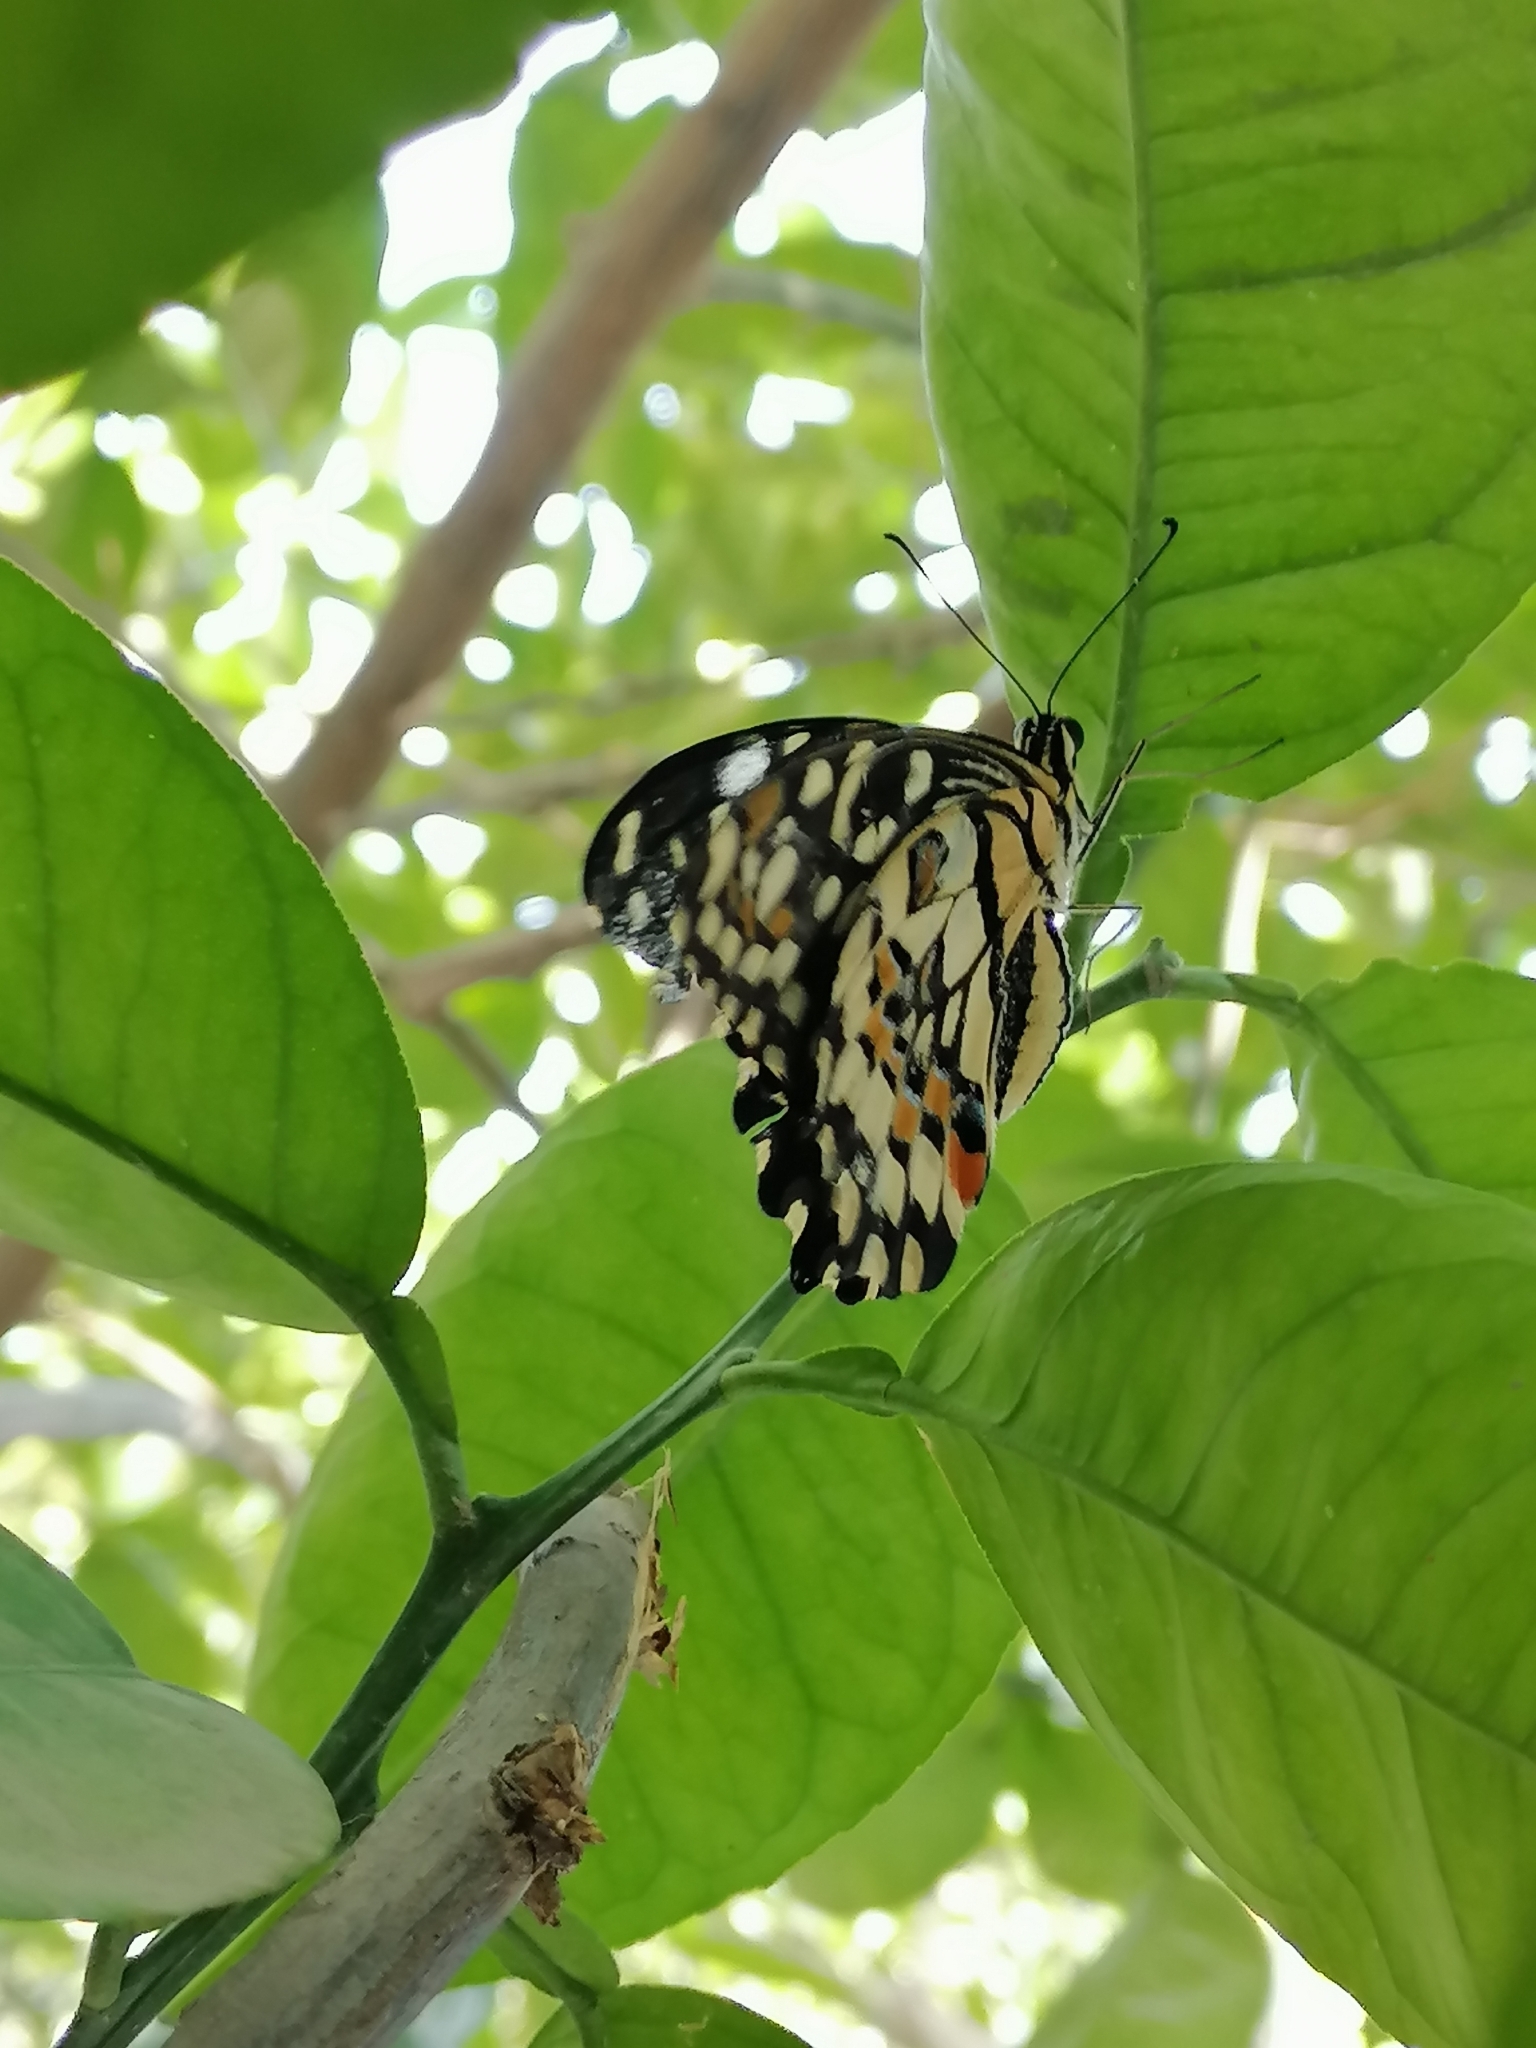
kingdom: Animalia
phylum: Arthropoda
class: Insecta
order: Lepidoptera
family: Papilionidae
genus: Papilio
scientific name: Papilio demoleus
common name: Lime butterfly
